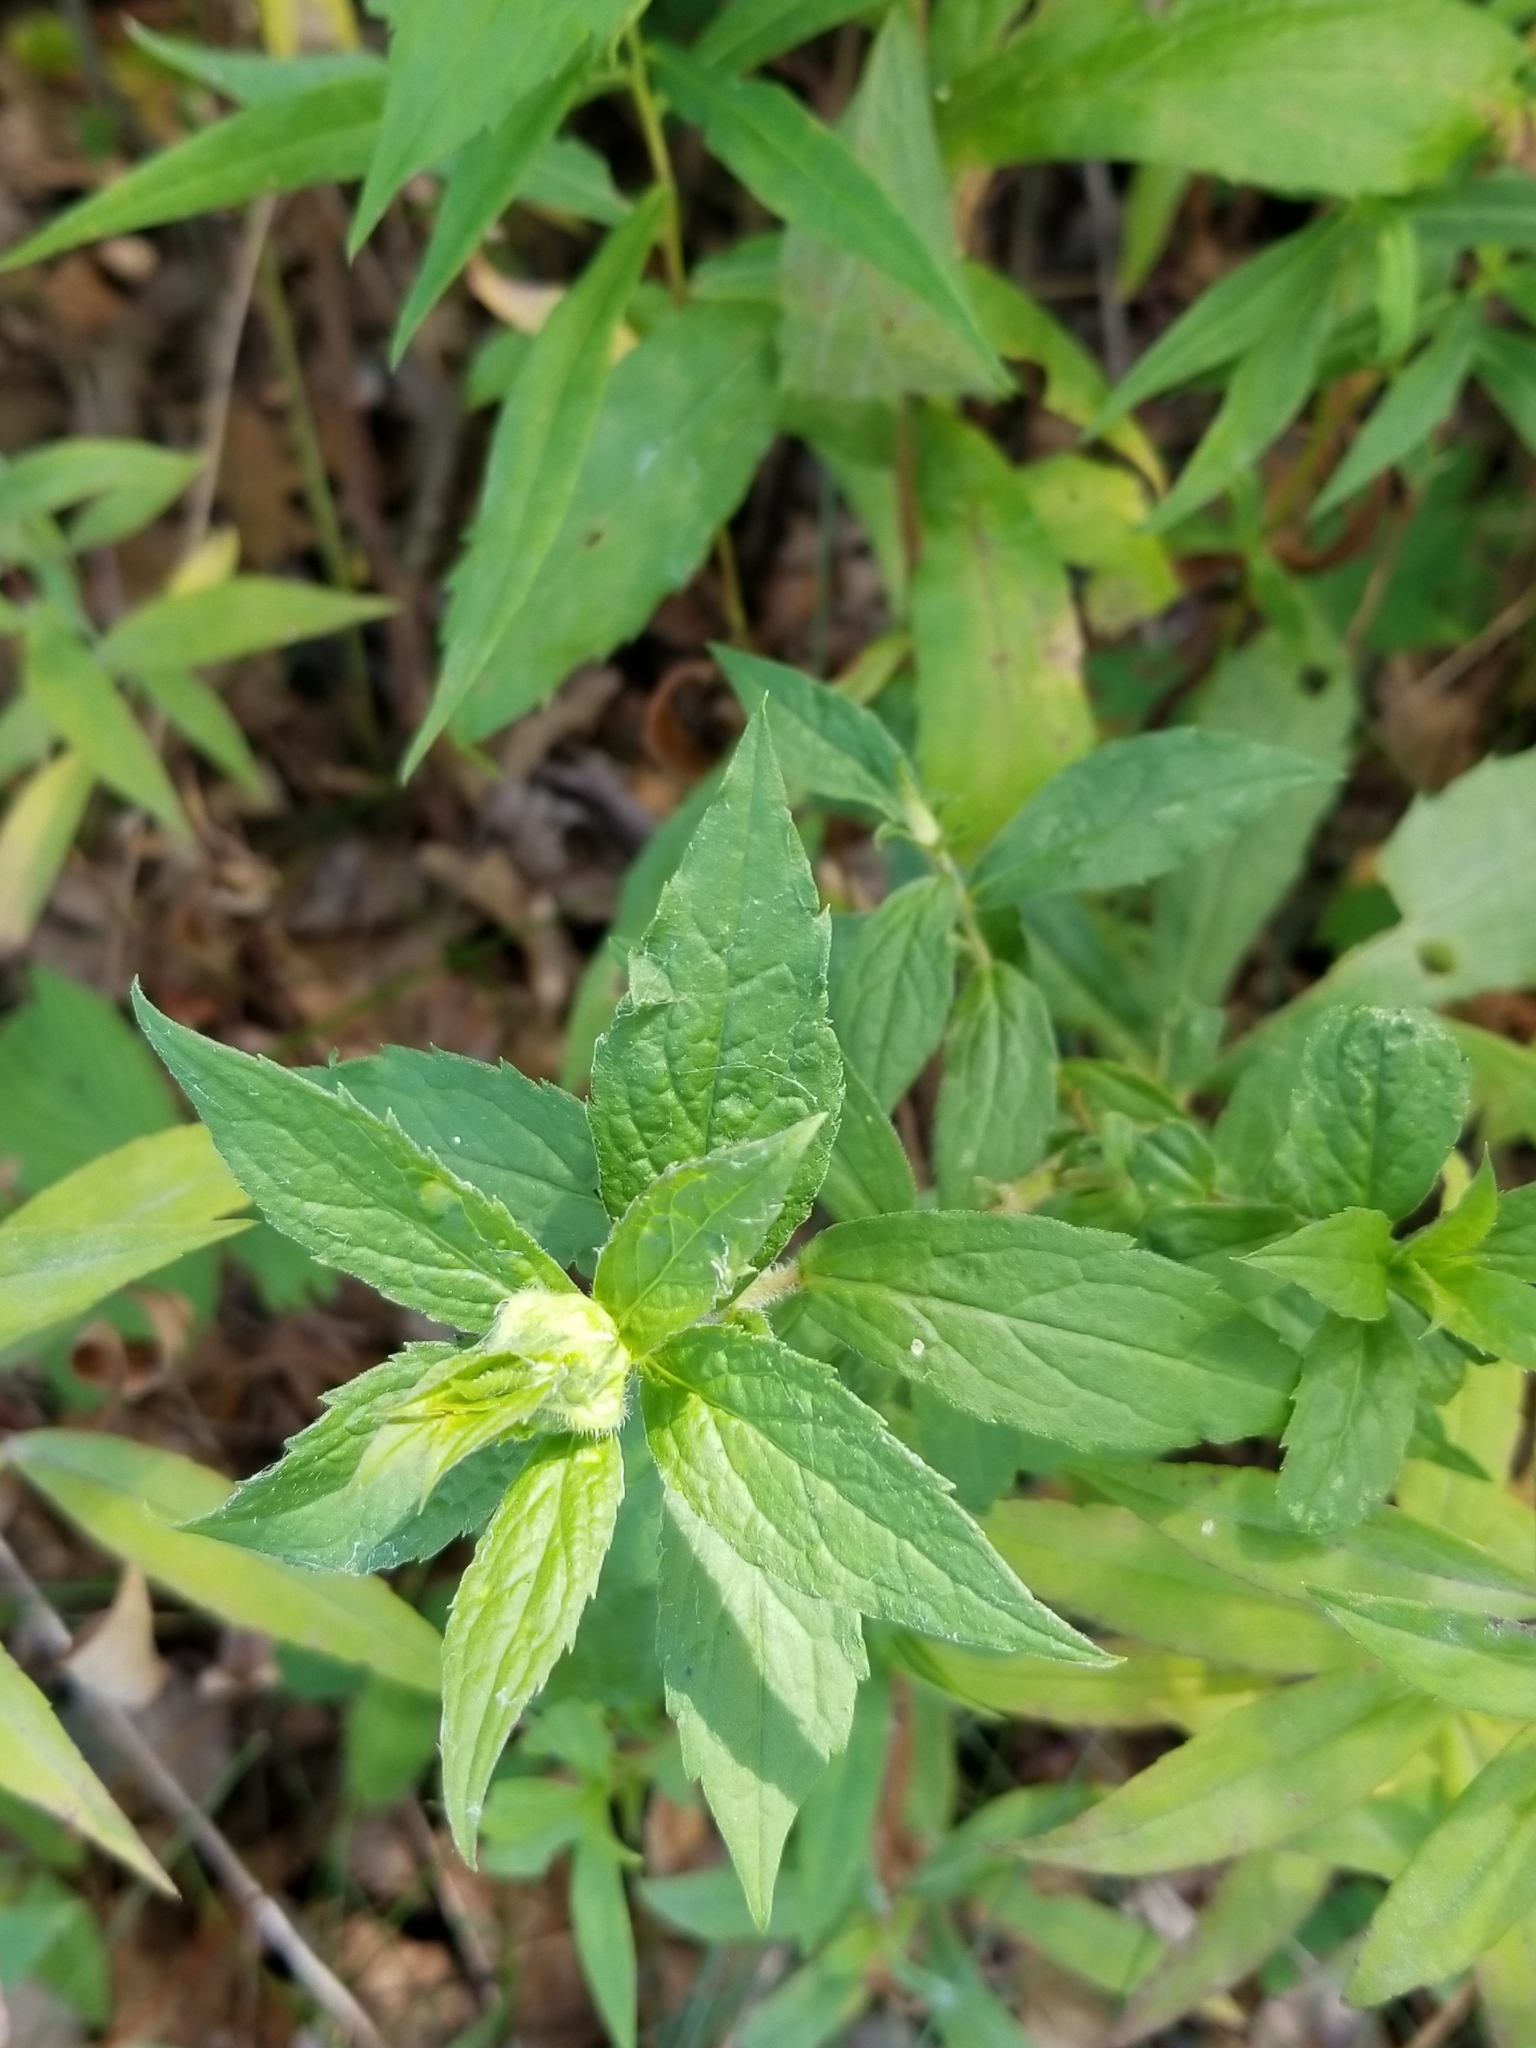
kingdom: Animalia
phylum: Arthropoda
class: Insecta
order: Diptera
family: Cecidomyiidae
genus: Dasineura
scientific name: Dasineura folliculi
